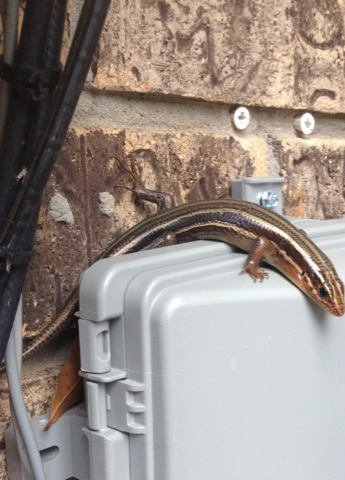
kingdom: Animalia
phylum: Chordata
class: Squamata
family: Scincidae
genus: Plestiodon
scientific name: Plestiodon laticeps
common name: Broadhead skink
